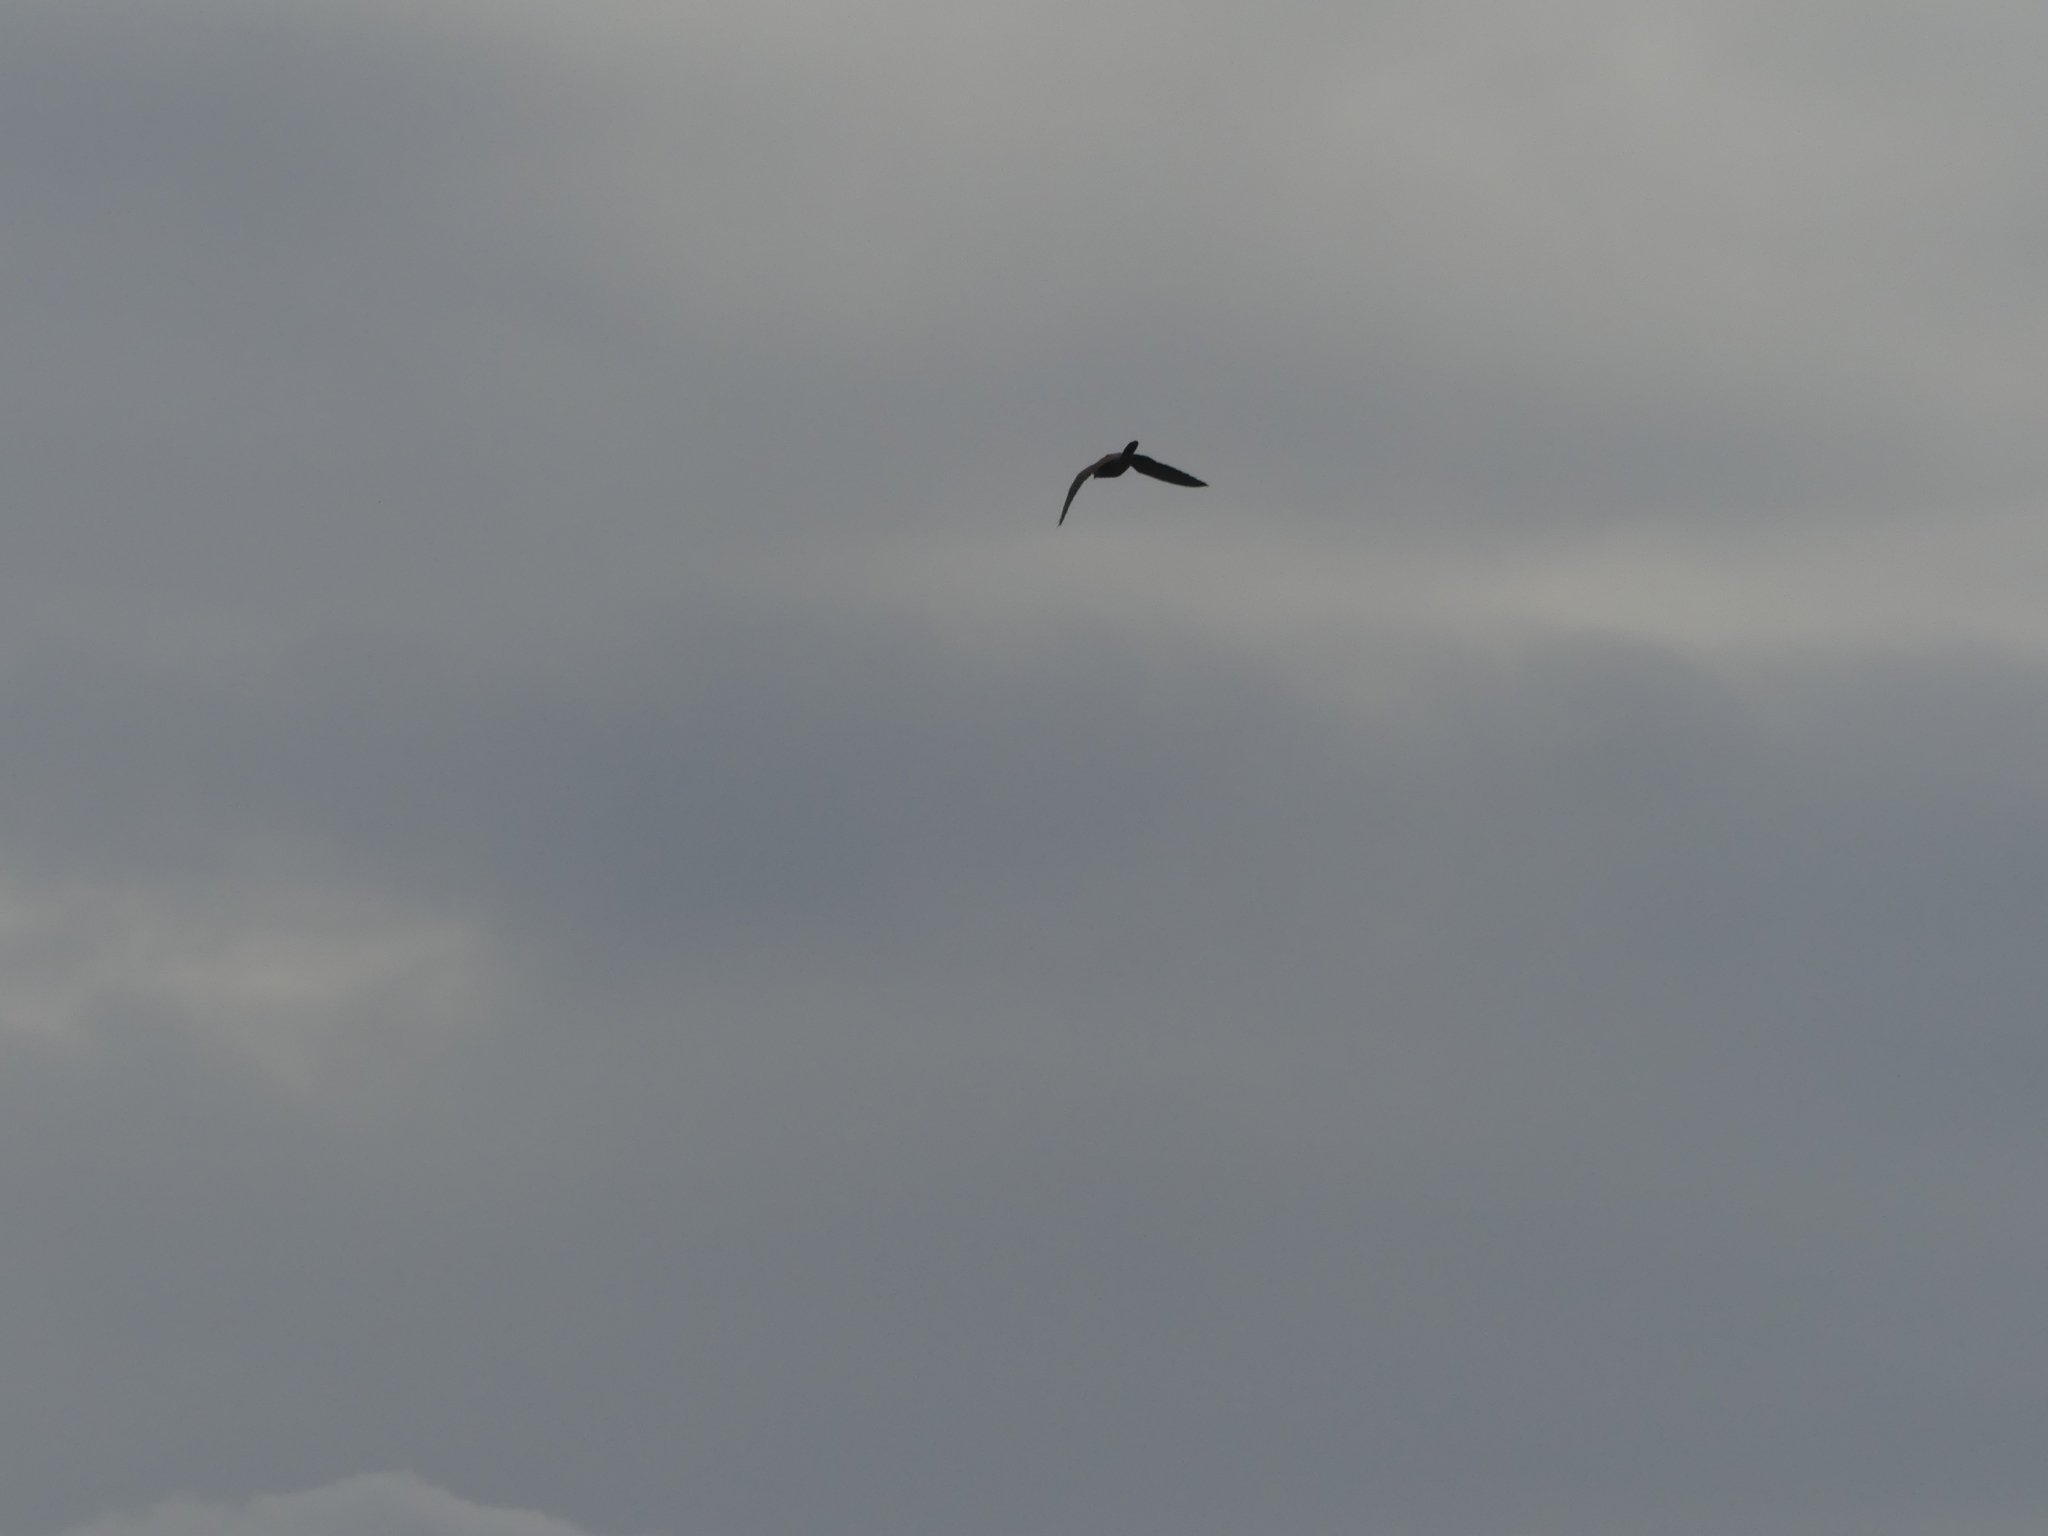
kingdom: Animalia
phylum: Chordata
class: Aves
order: Falconiformes
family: Falconidae
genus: Falco
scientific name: Falco tinnunculus
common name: Common kestrel
